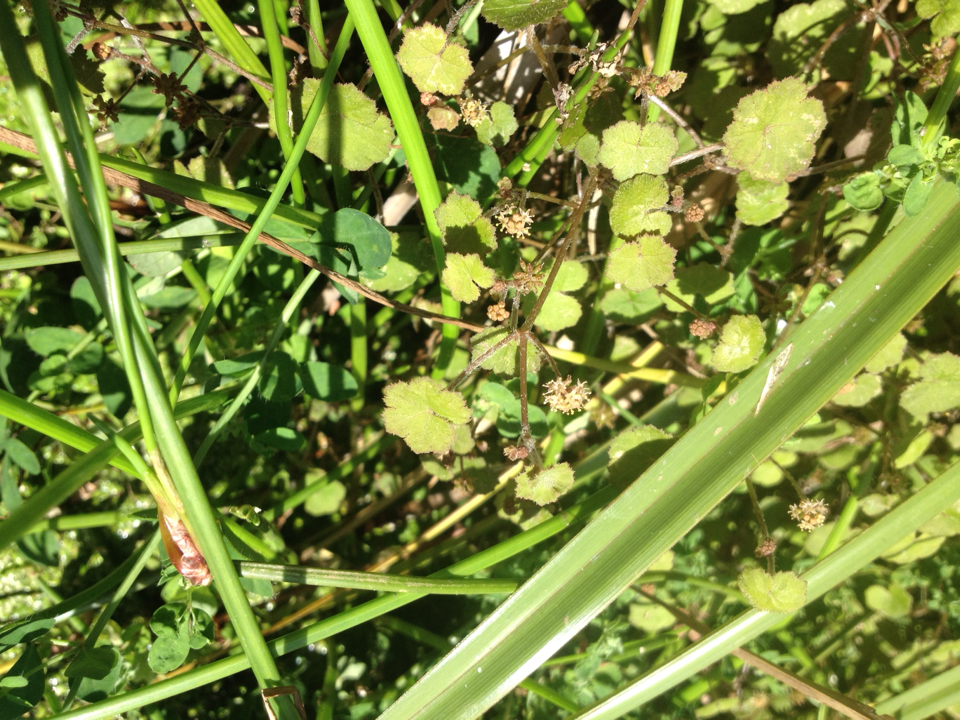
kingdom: Plantae
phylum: Tracheophyta
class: Magnoliopsida
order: Apiales
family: Araliaceae
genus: Hydrocotyle
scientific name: Hydrocotyle moschata
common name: Hairy pennywort
